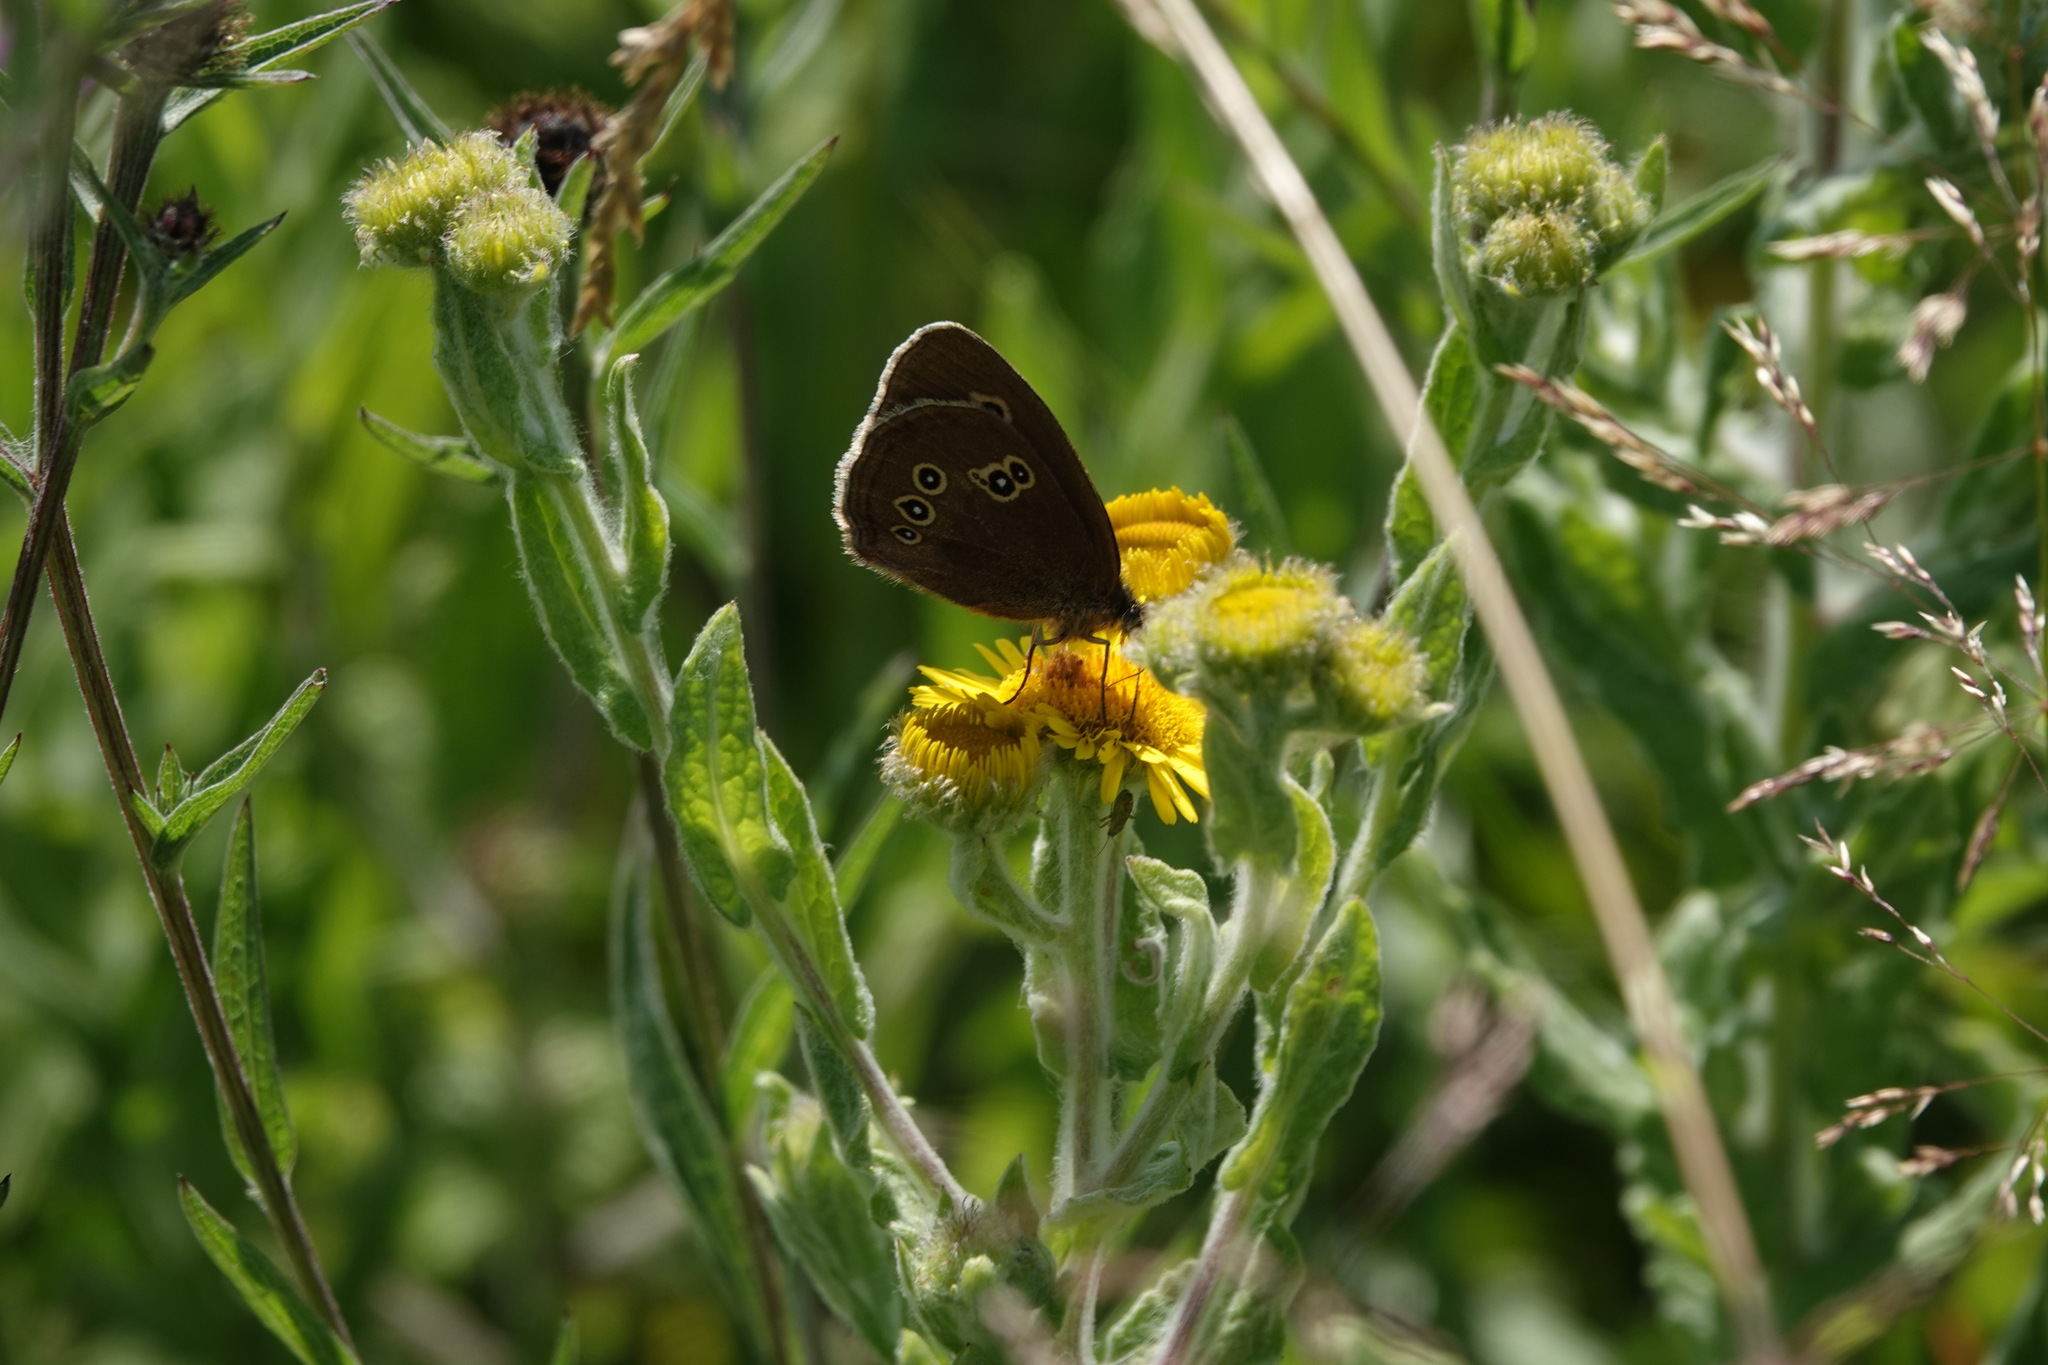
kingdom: Animalia
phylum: Arthropoda
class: Insecta
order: Lepidoptera
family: Nymphalidae
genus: Aphantopus
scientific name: Aphantopus hyperantus
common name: Ringlet
